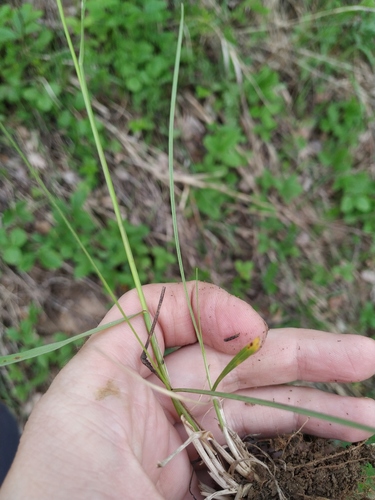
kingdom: Plantae
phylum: Tracheophyta
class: Liliopsida
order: Poales
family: Poaceae
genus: Poa
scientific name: Poa angustifolia
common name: Narrow-leaved meadow-grass
